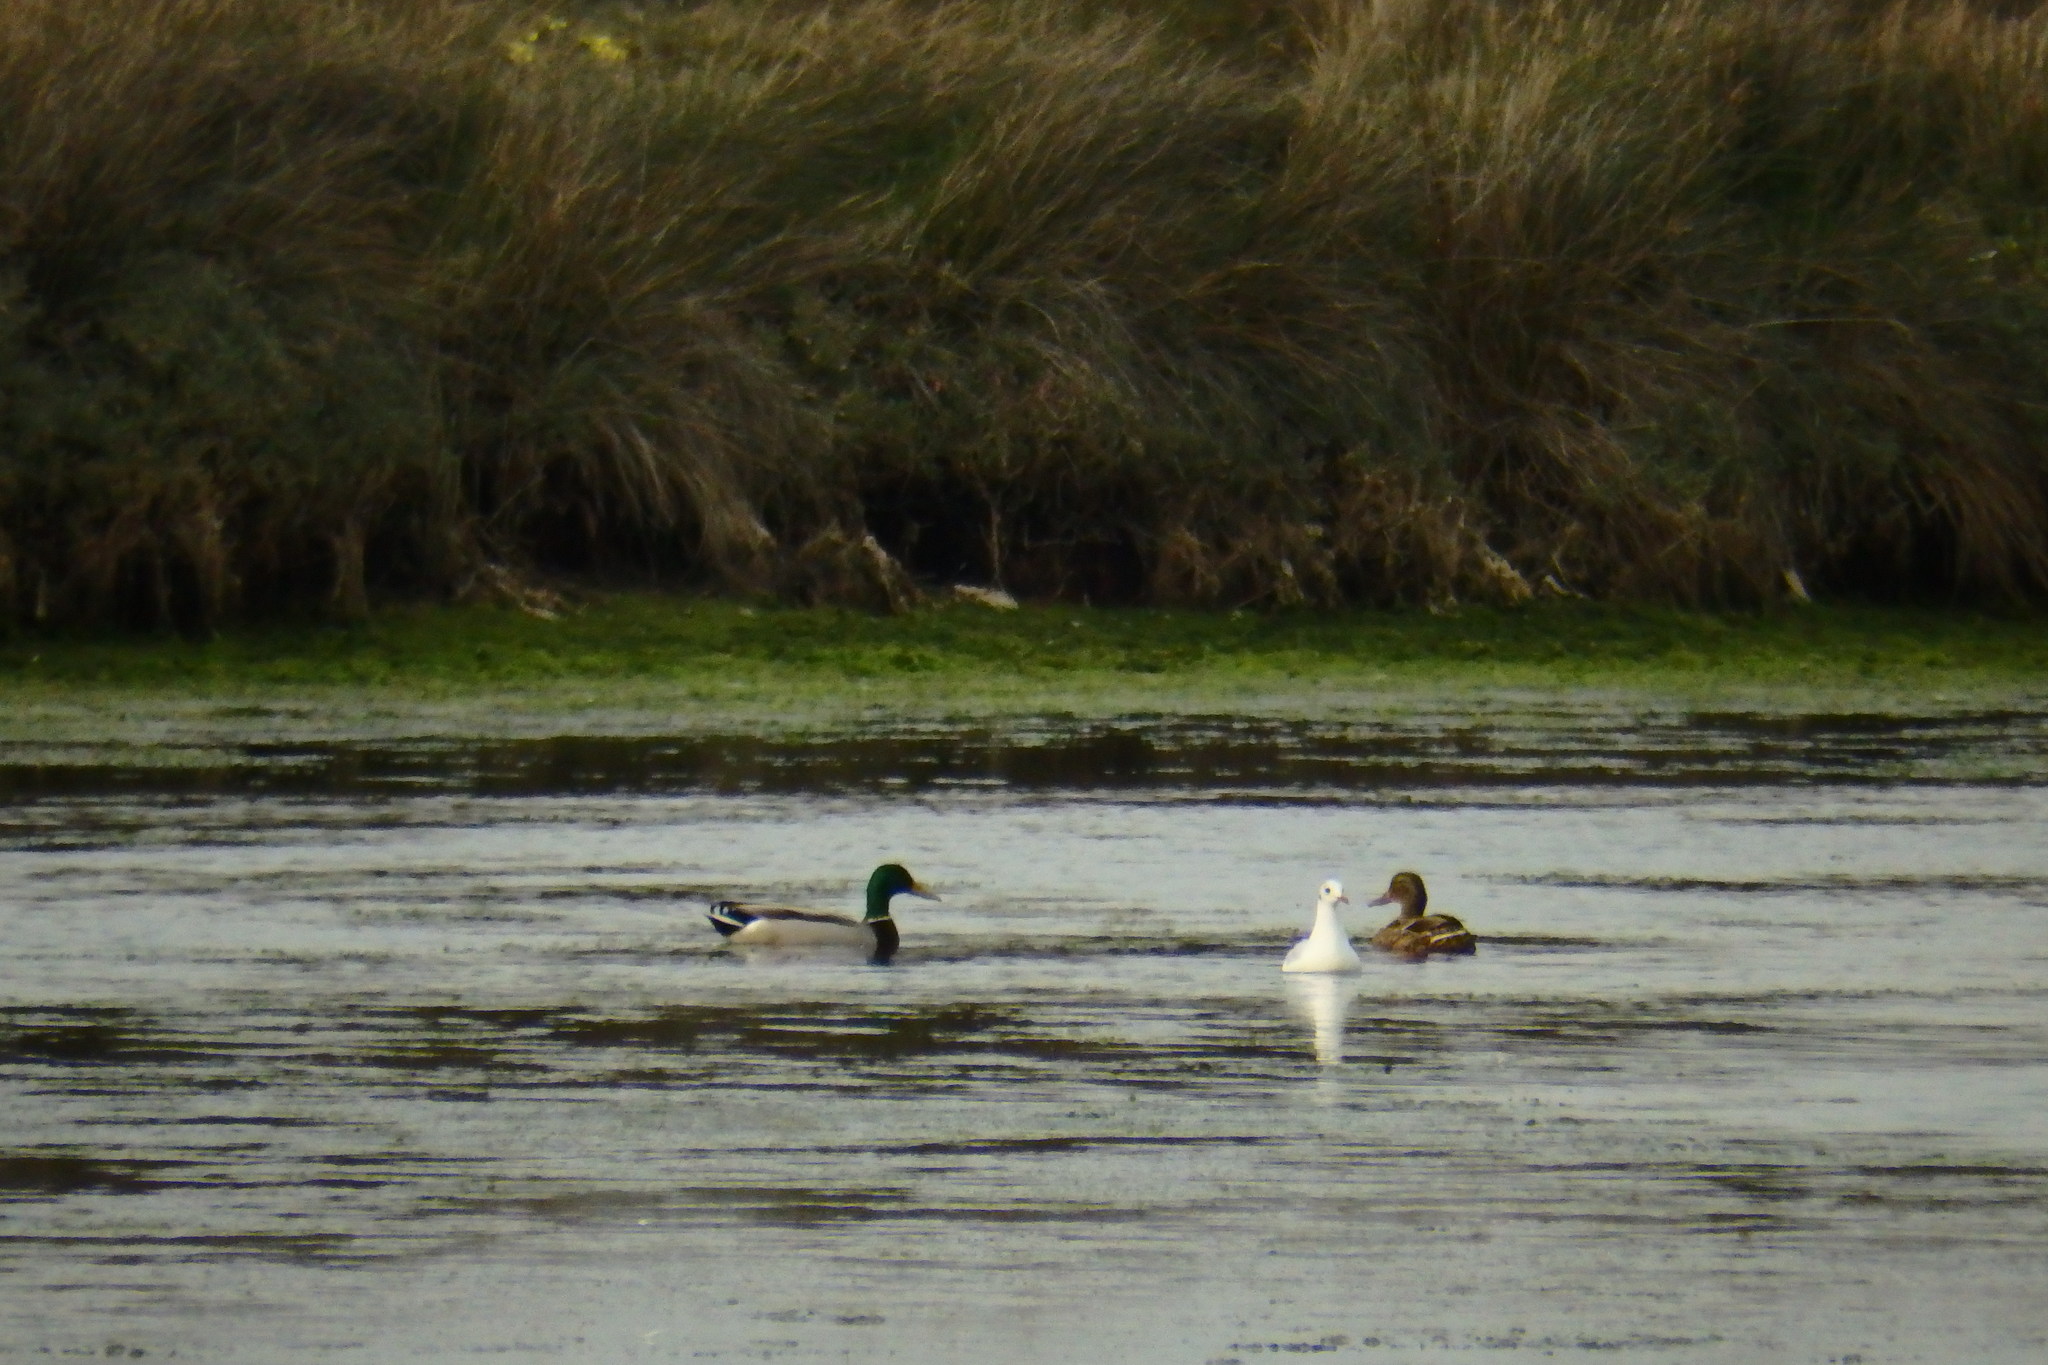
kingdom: Animalia
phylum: Chordata
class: Aves
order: Anseriformes
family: Anatidae
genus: Anas
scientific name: Anas platyrhynchos
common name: Mallard
